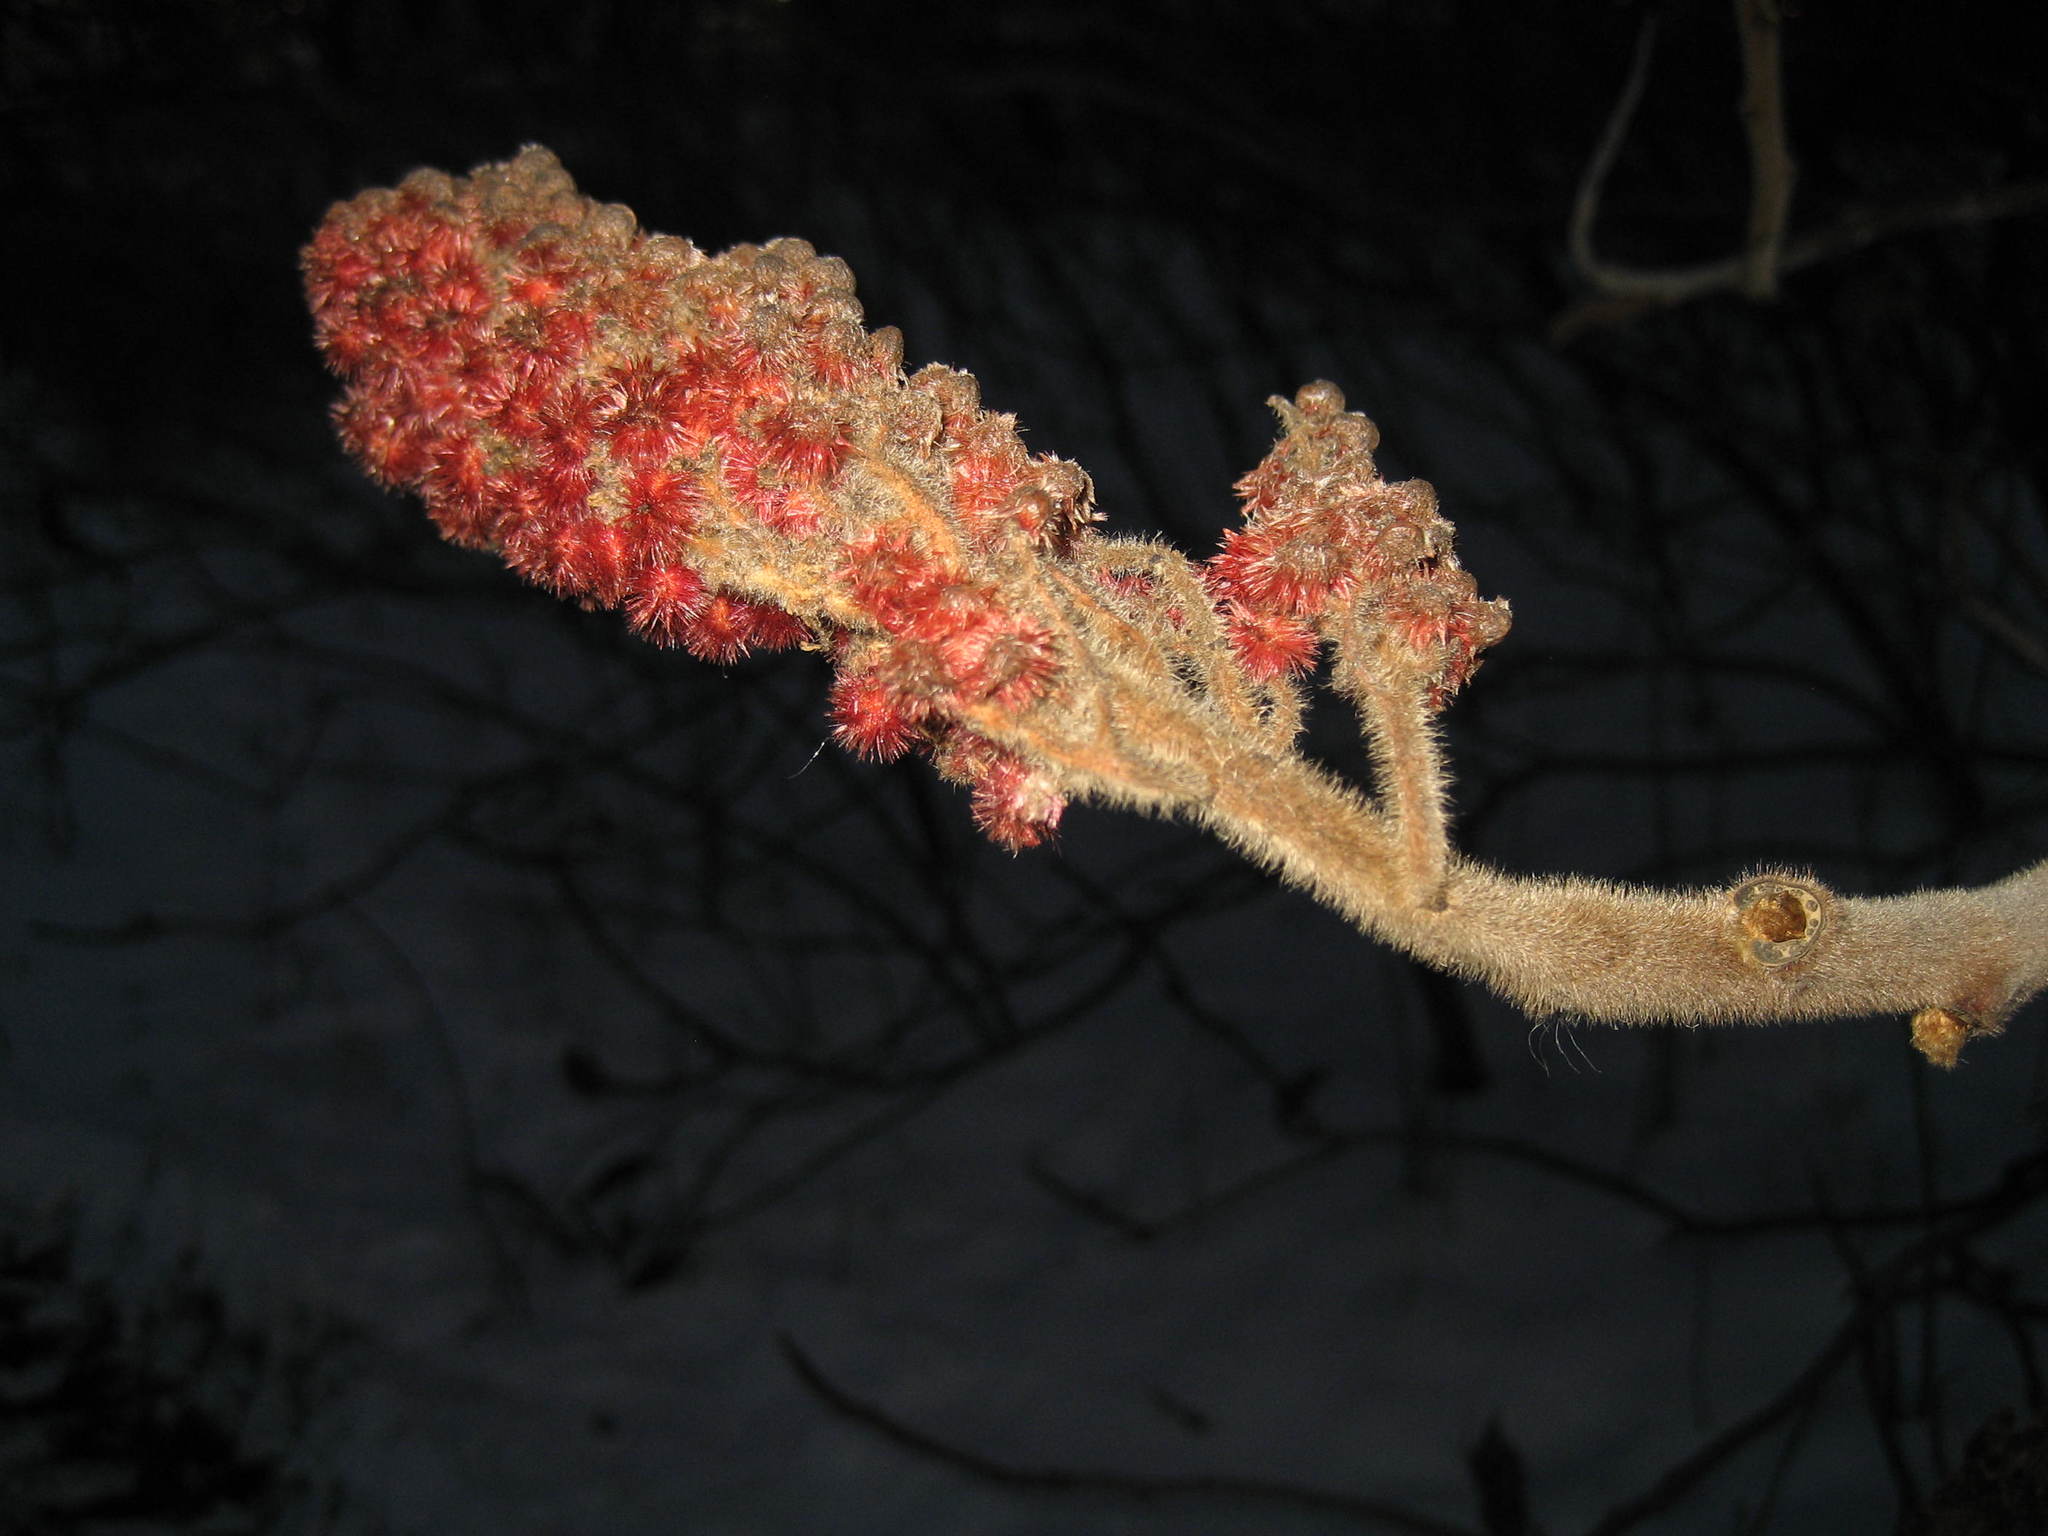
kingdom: Plantae
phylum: Tracheophyta
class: Magnoliopsida
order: Sapindales
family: Anacardiaceae
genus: Rhus
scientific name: Rhus typhina
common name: Staghorn sumac
